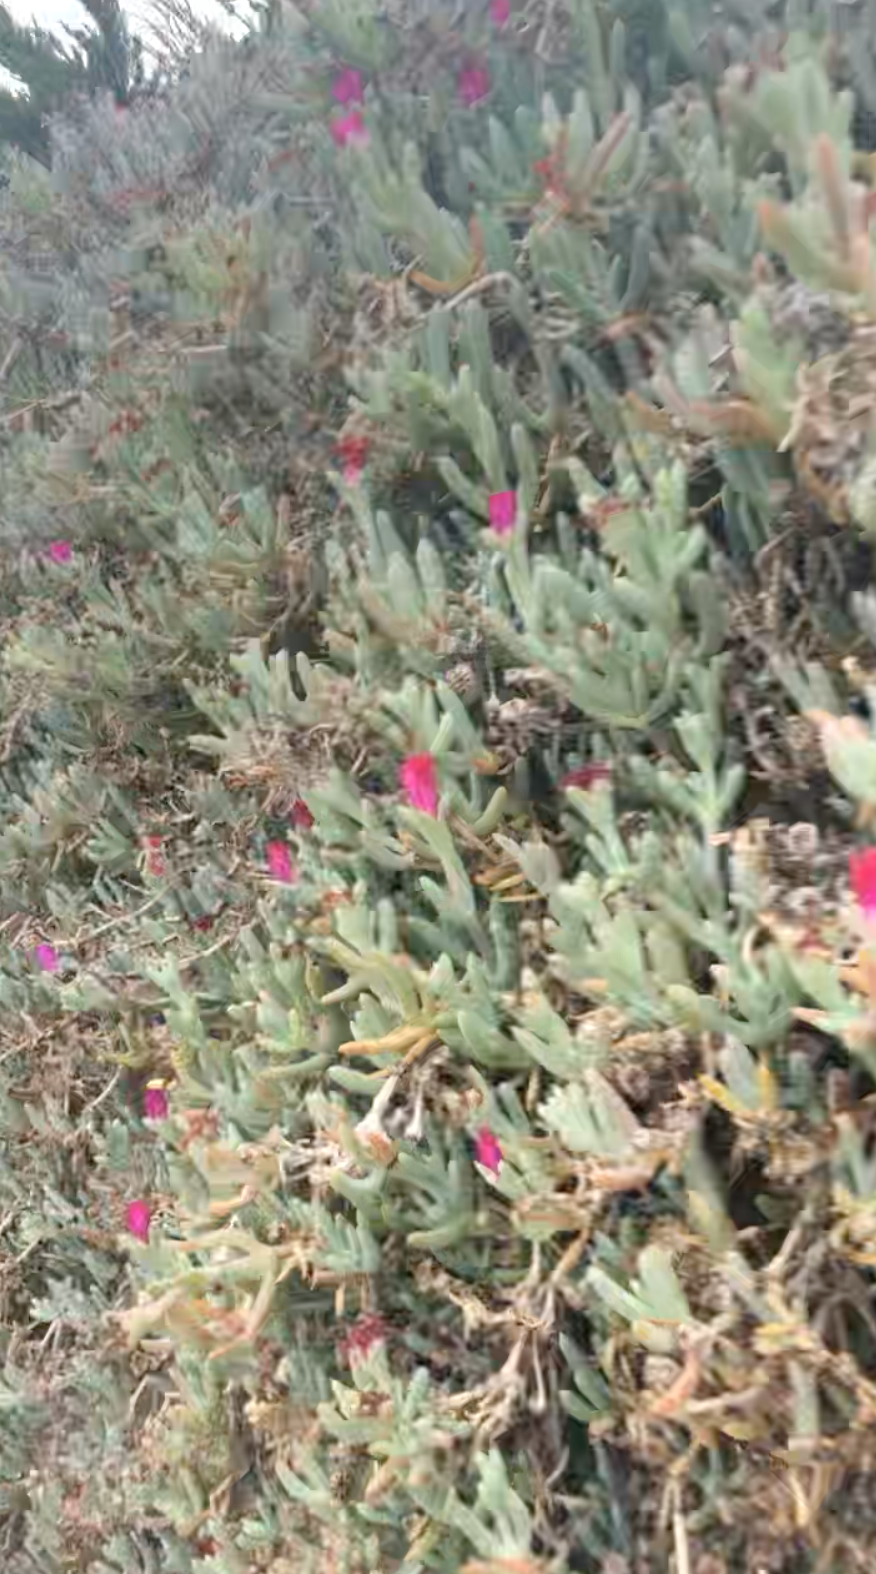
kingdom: Plantae
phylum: Tracheophyta
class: Magnoliopsida
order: Caryophyllales
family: Aizoaceae
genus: Malephora
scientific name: Malephora crocea
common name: Coppery mesemb
